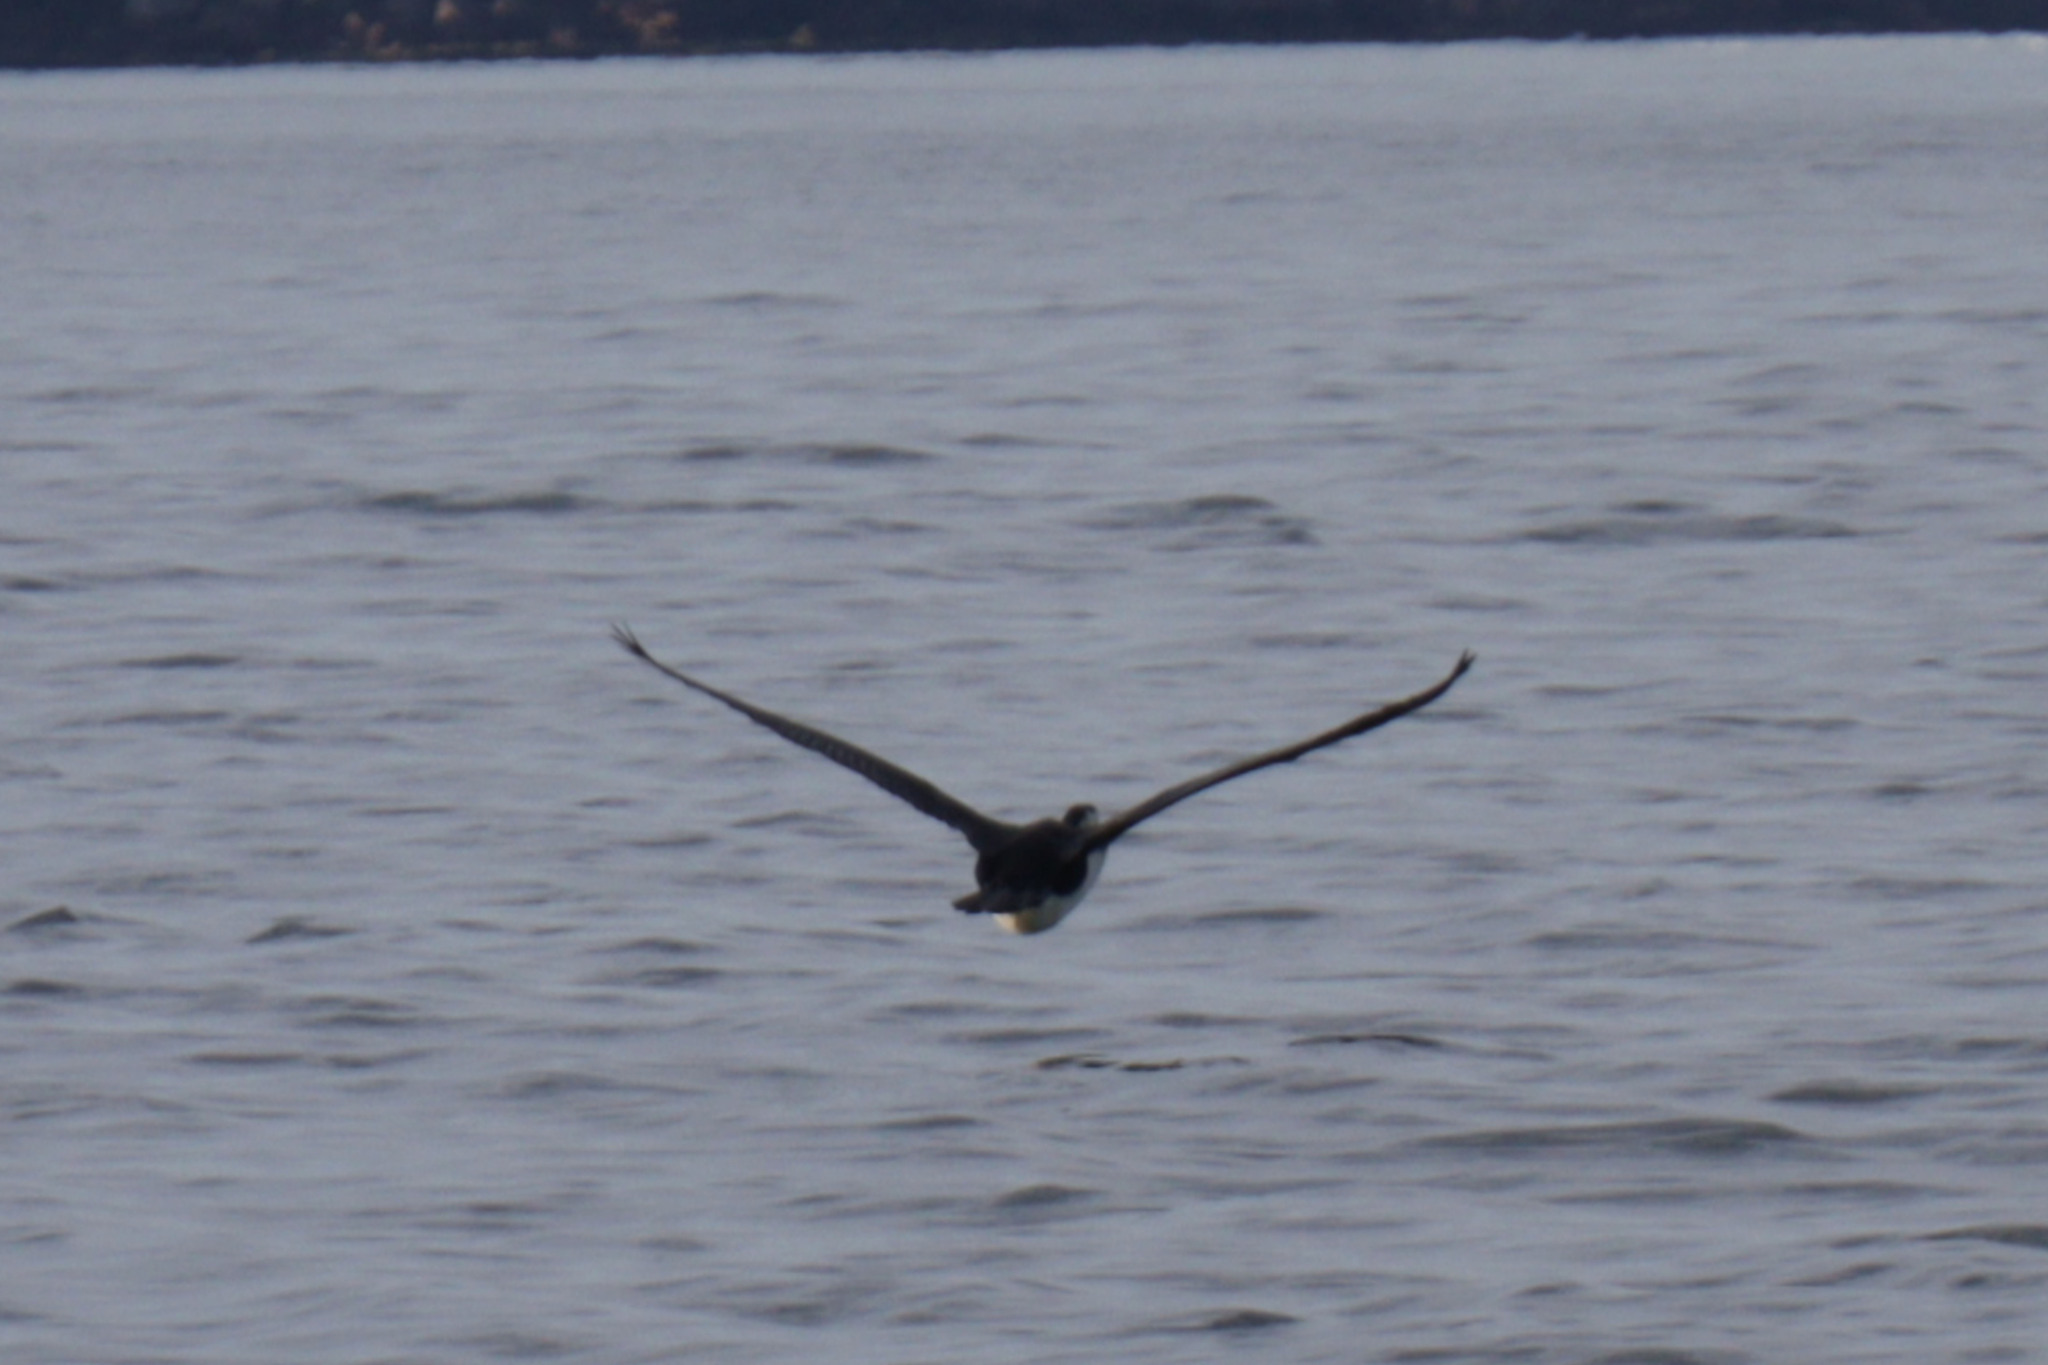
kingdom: Animalia
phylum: Chordata
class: Aves
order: Suliformes
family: Phalacrocoracidae
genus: Phalacrocorax
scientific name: Phalacrocorax varius
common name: Pied cormorant
